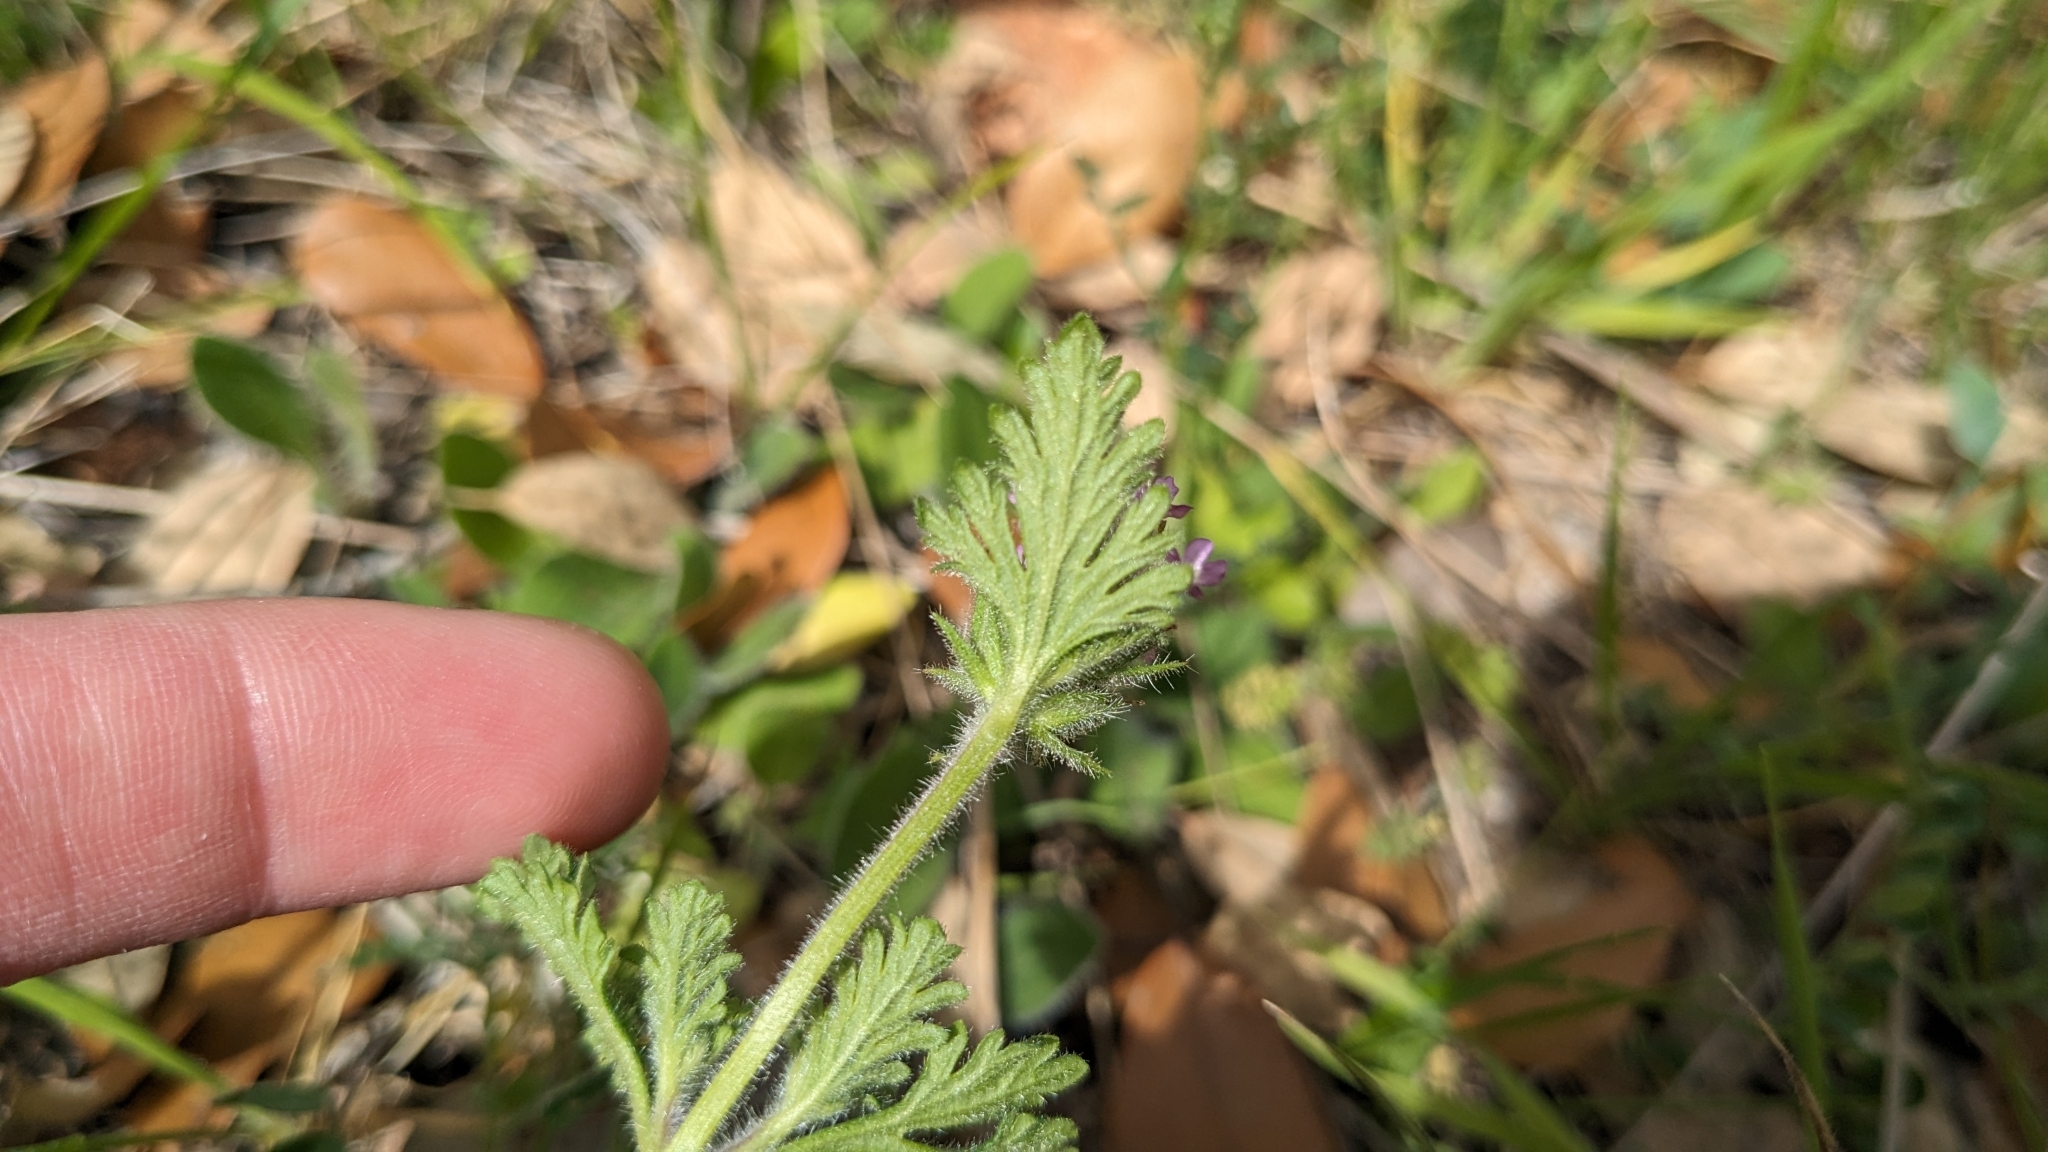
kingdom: Plantae
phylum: Tracheophyta
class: Magnoliopsida
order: Lamiales
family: Verbenaceae
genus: Verbena
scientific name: Verbena pumila
